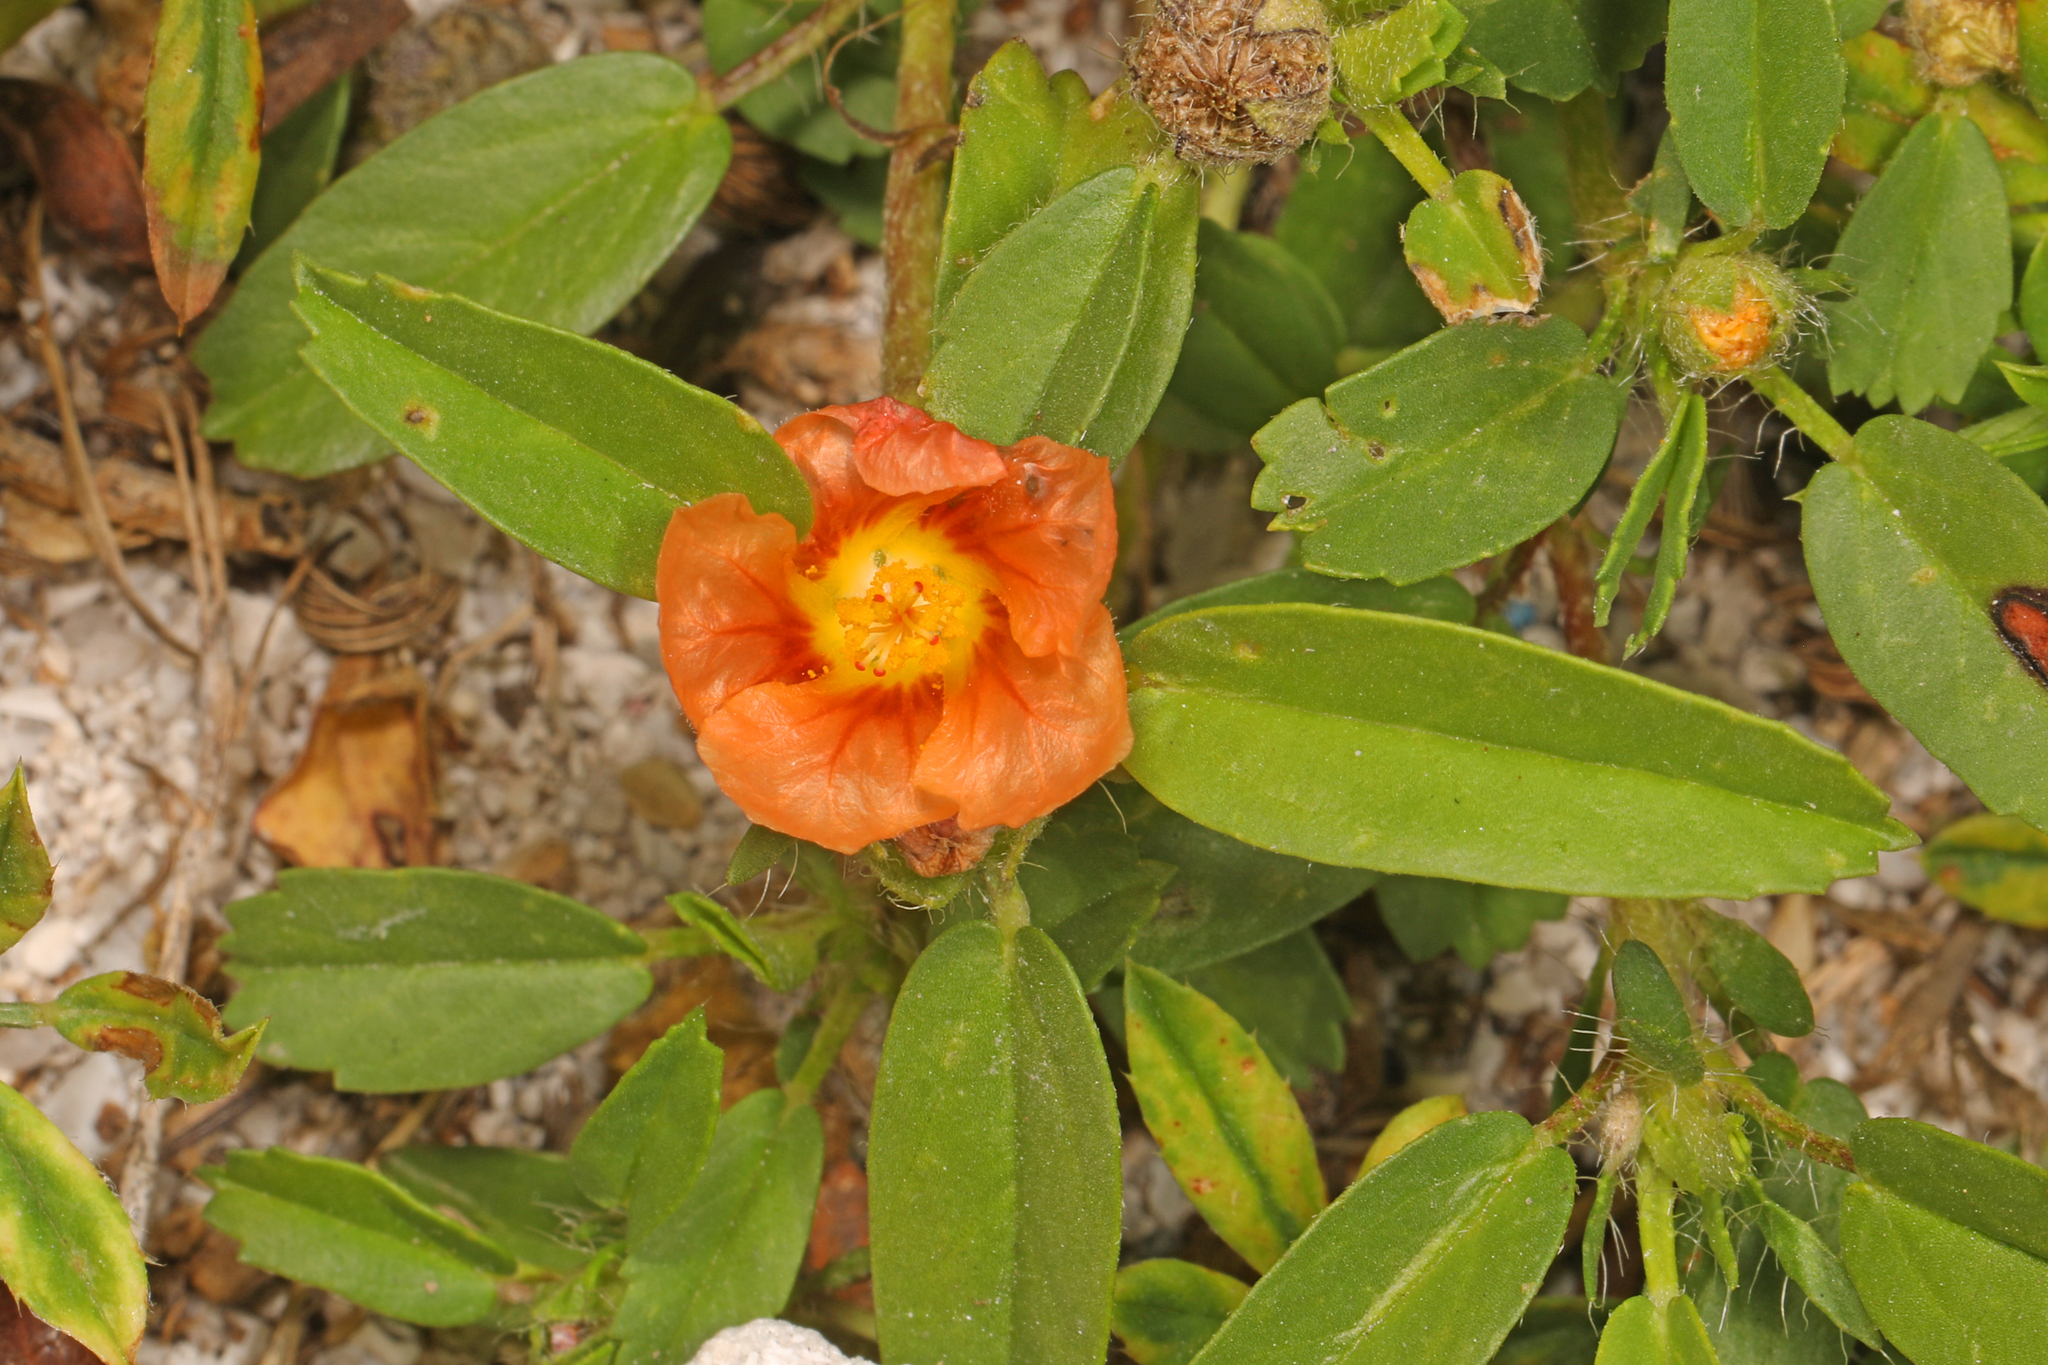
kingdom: Plantae
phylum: Tracheophyta
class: Magnoliopsida
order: Malvales
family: Malvaceae
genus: Sida
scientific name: Sida ciliaris
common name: Bracted fanpetals
